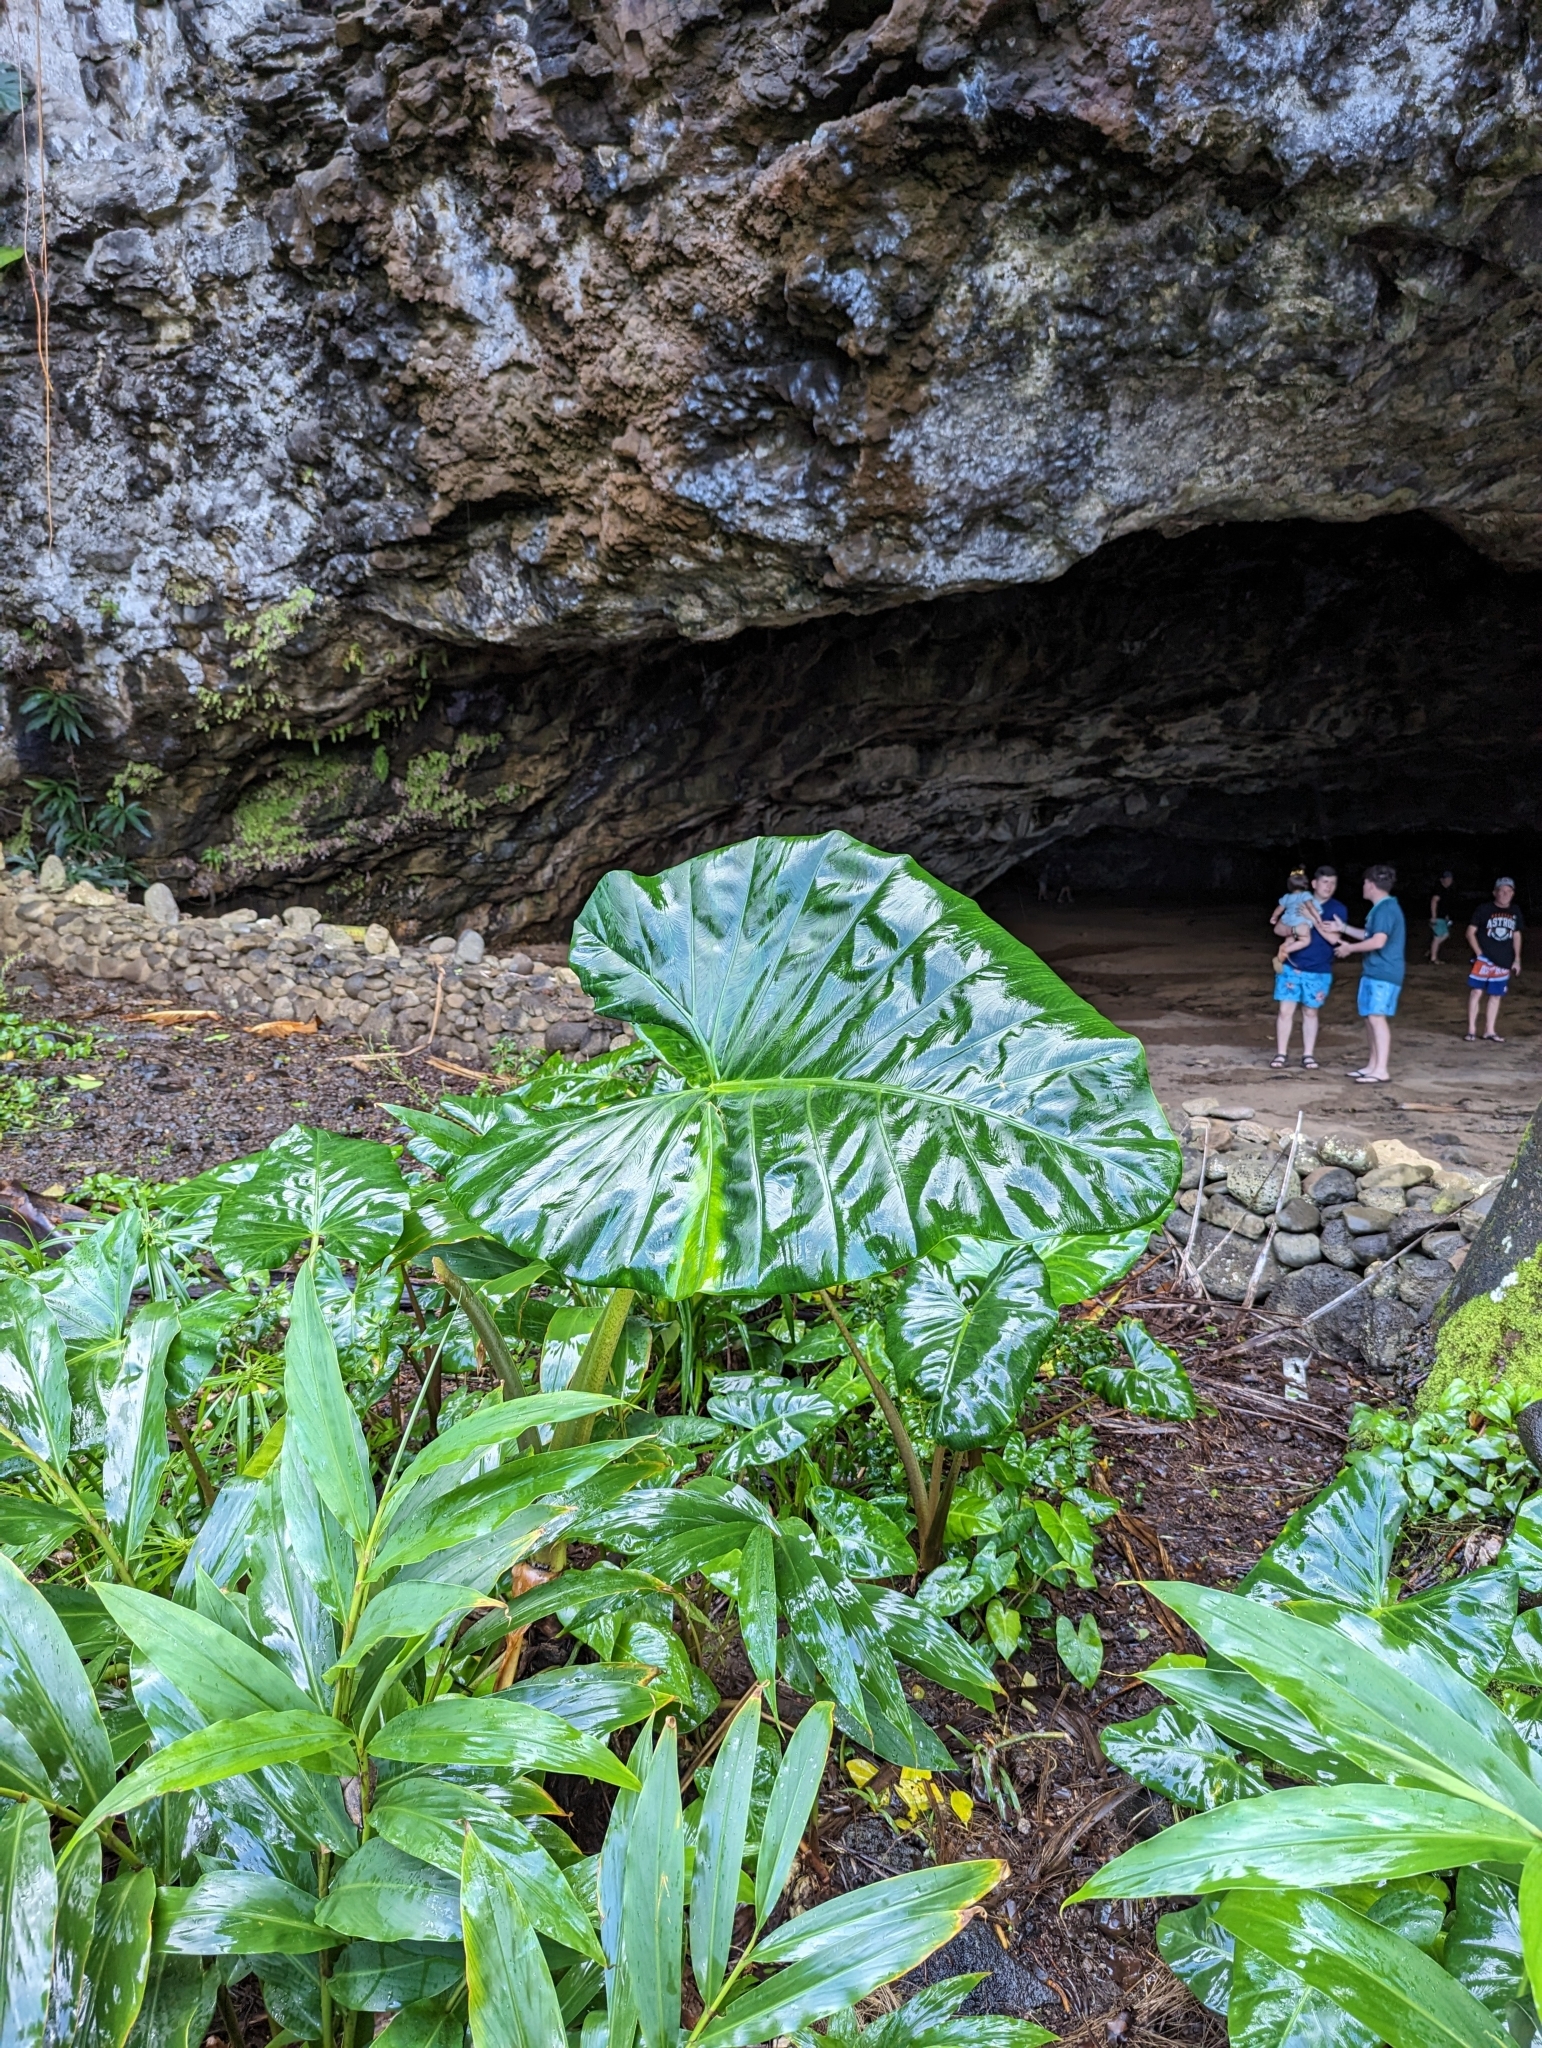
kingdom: Plantae
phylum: Tracheophyta
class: Liliopsida
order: Alismatales
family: Araceae
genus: Xanthosoma
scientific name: Xanthosoma robustum
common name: Capote
